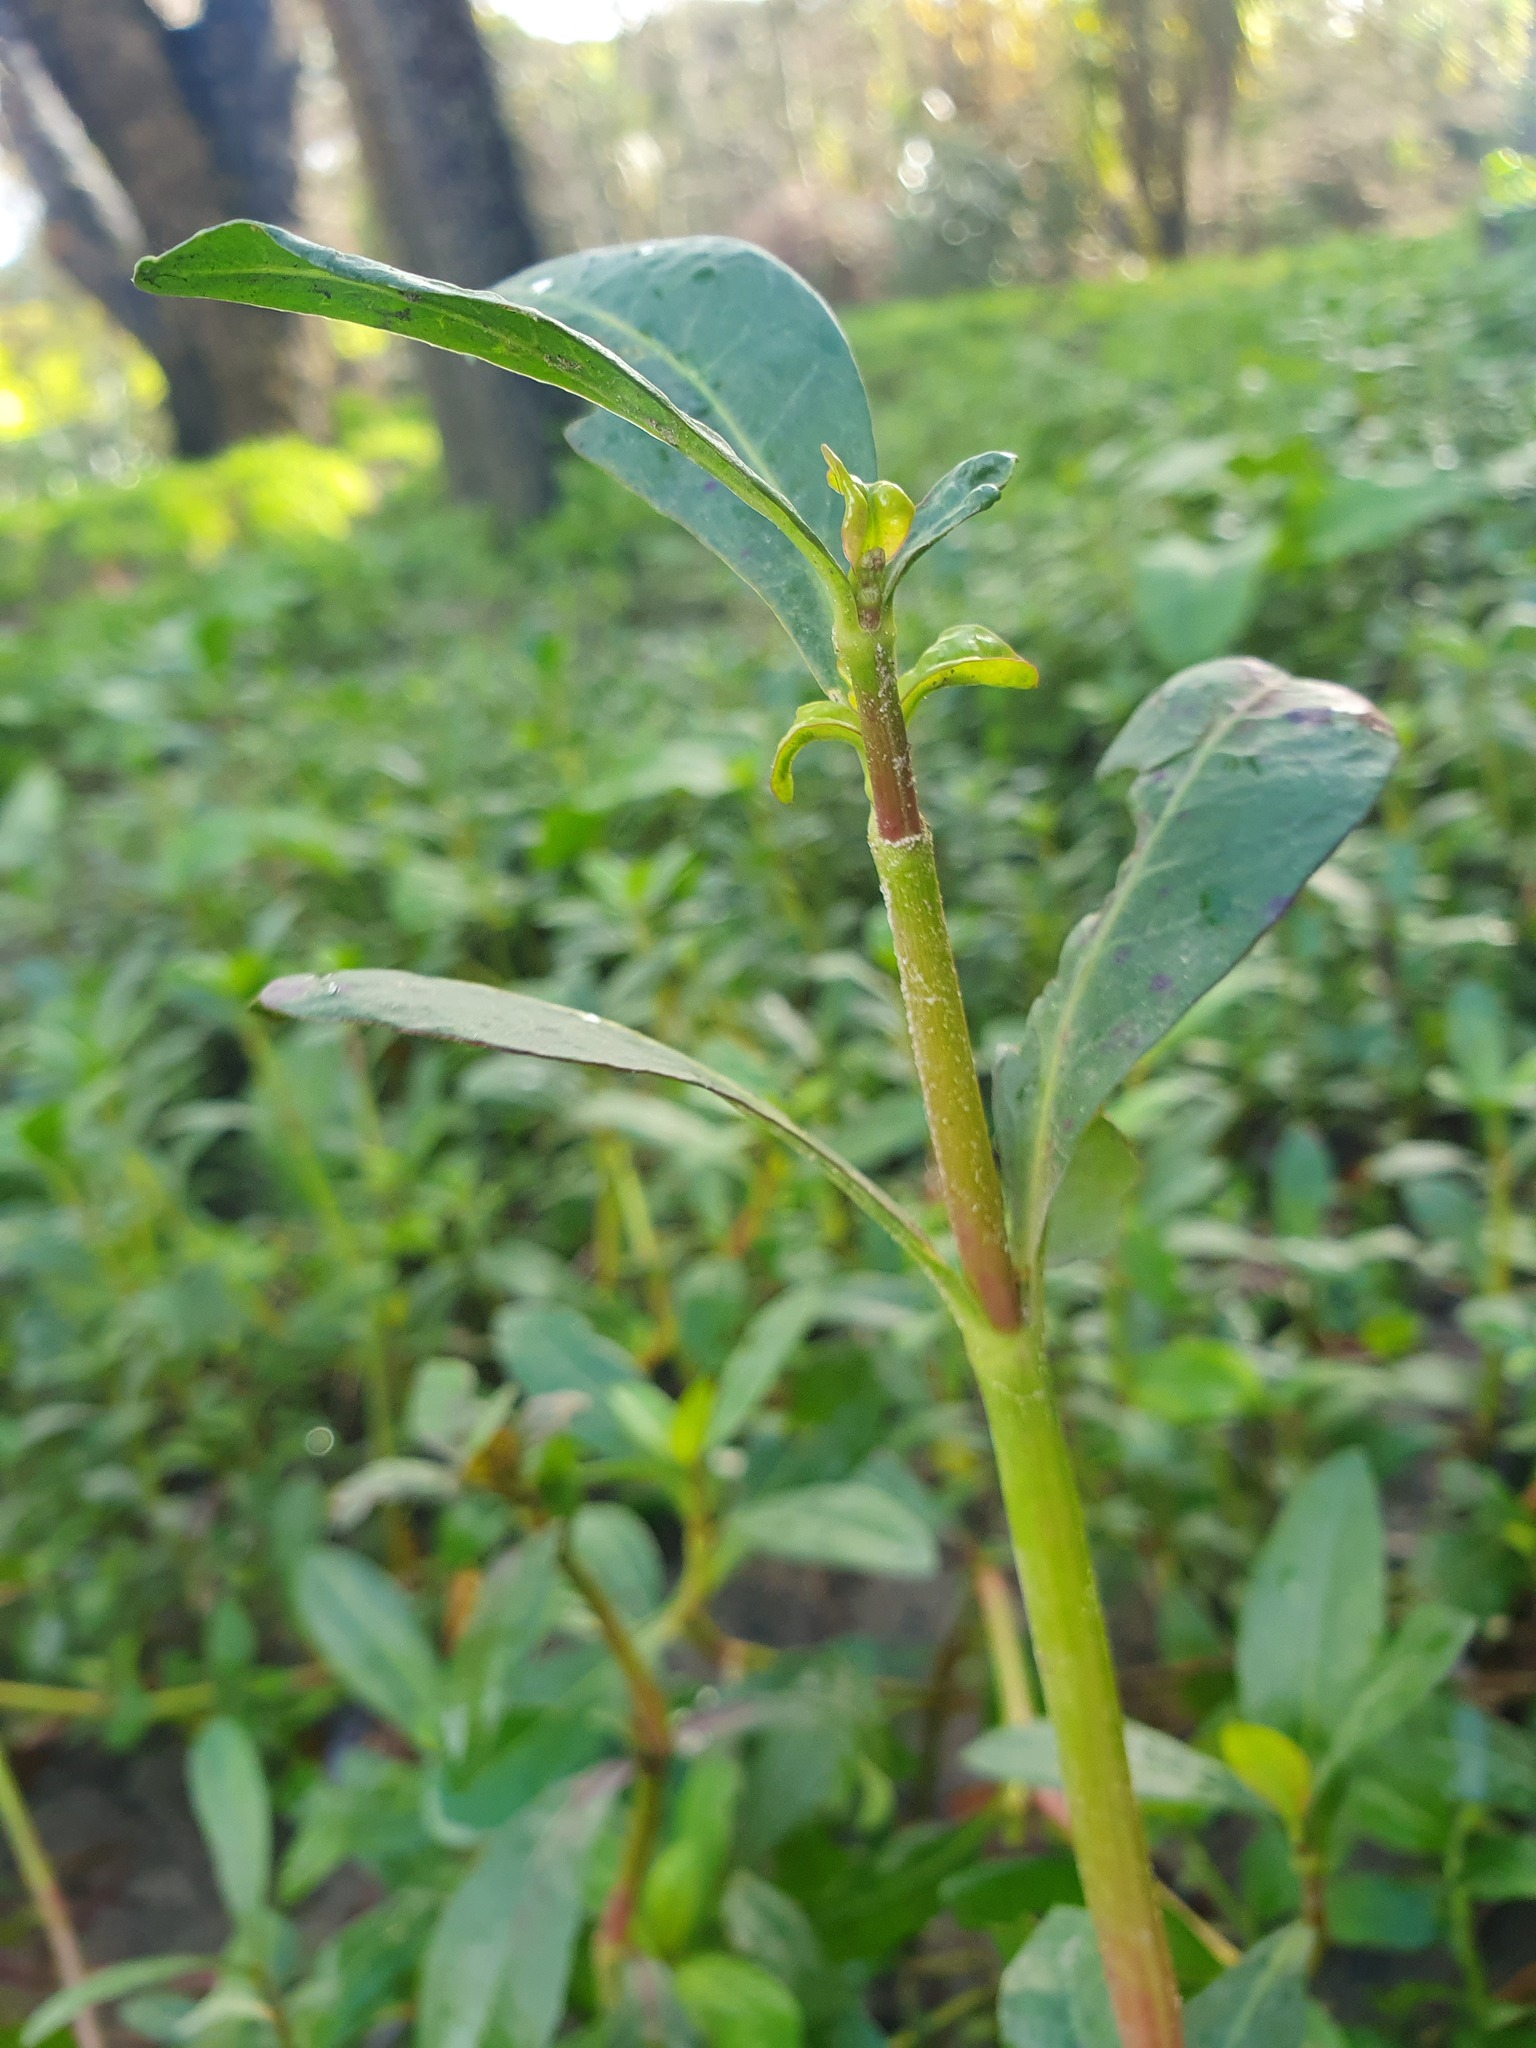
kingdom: Plantae
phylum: Tracheophyta
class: Magnoliopsida
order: Caryophyllales
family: Amaranthaceae
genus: Alternanthera
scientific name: Alternanthera philoxeroides
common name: Alligatorweed
